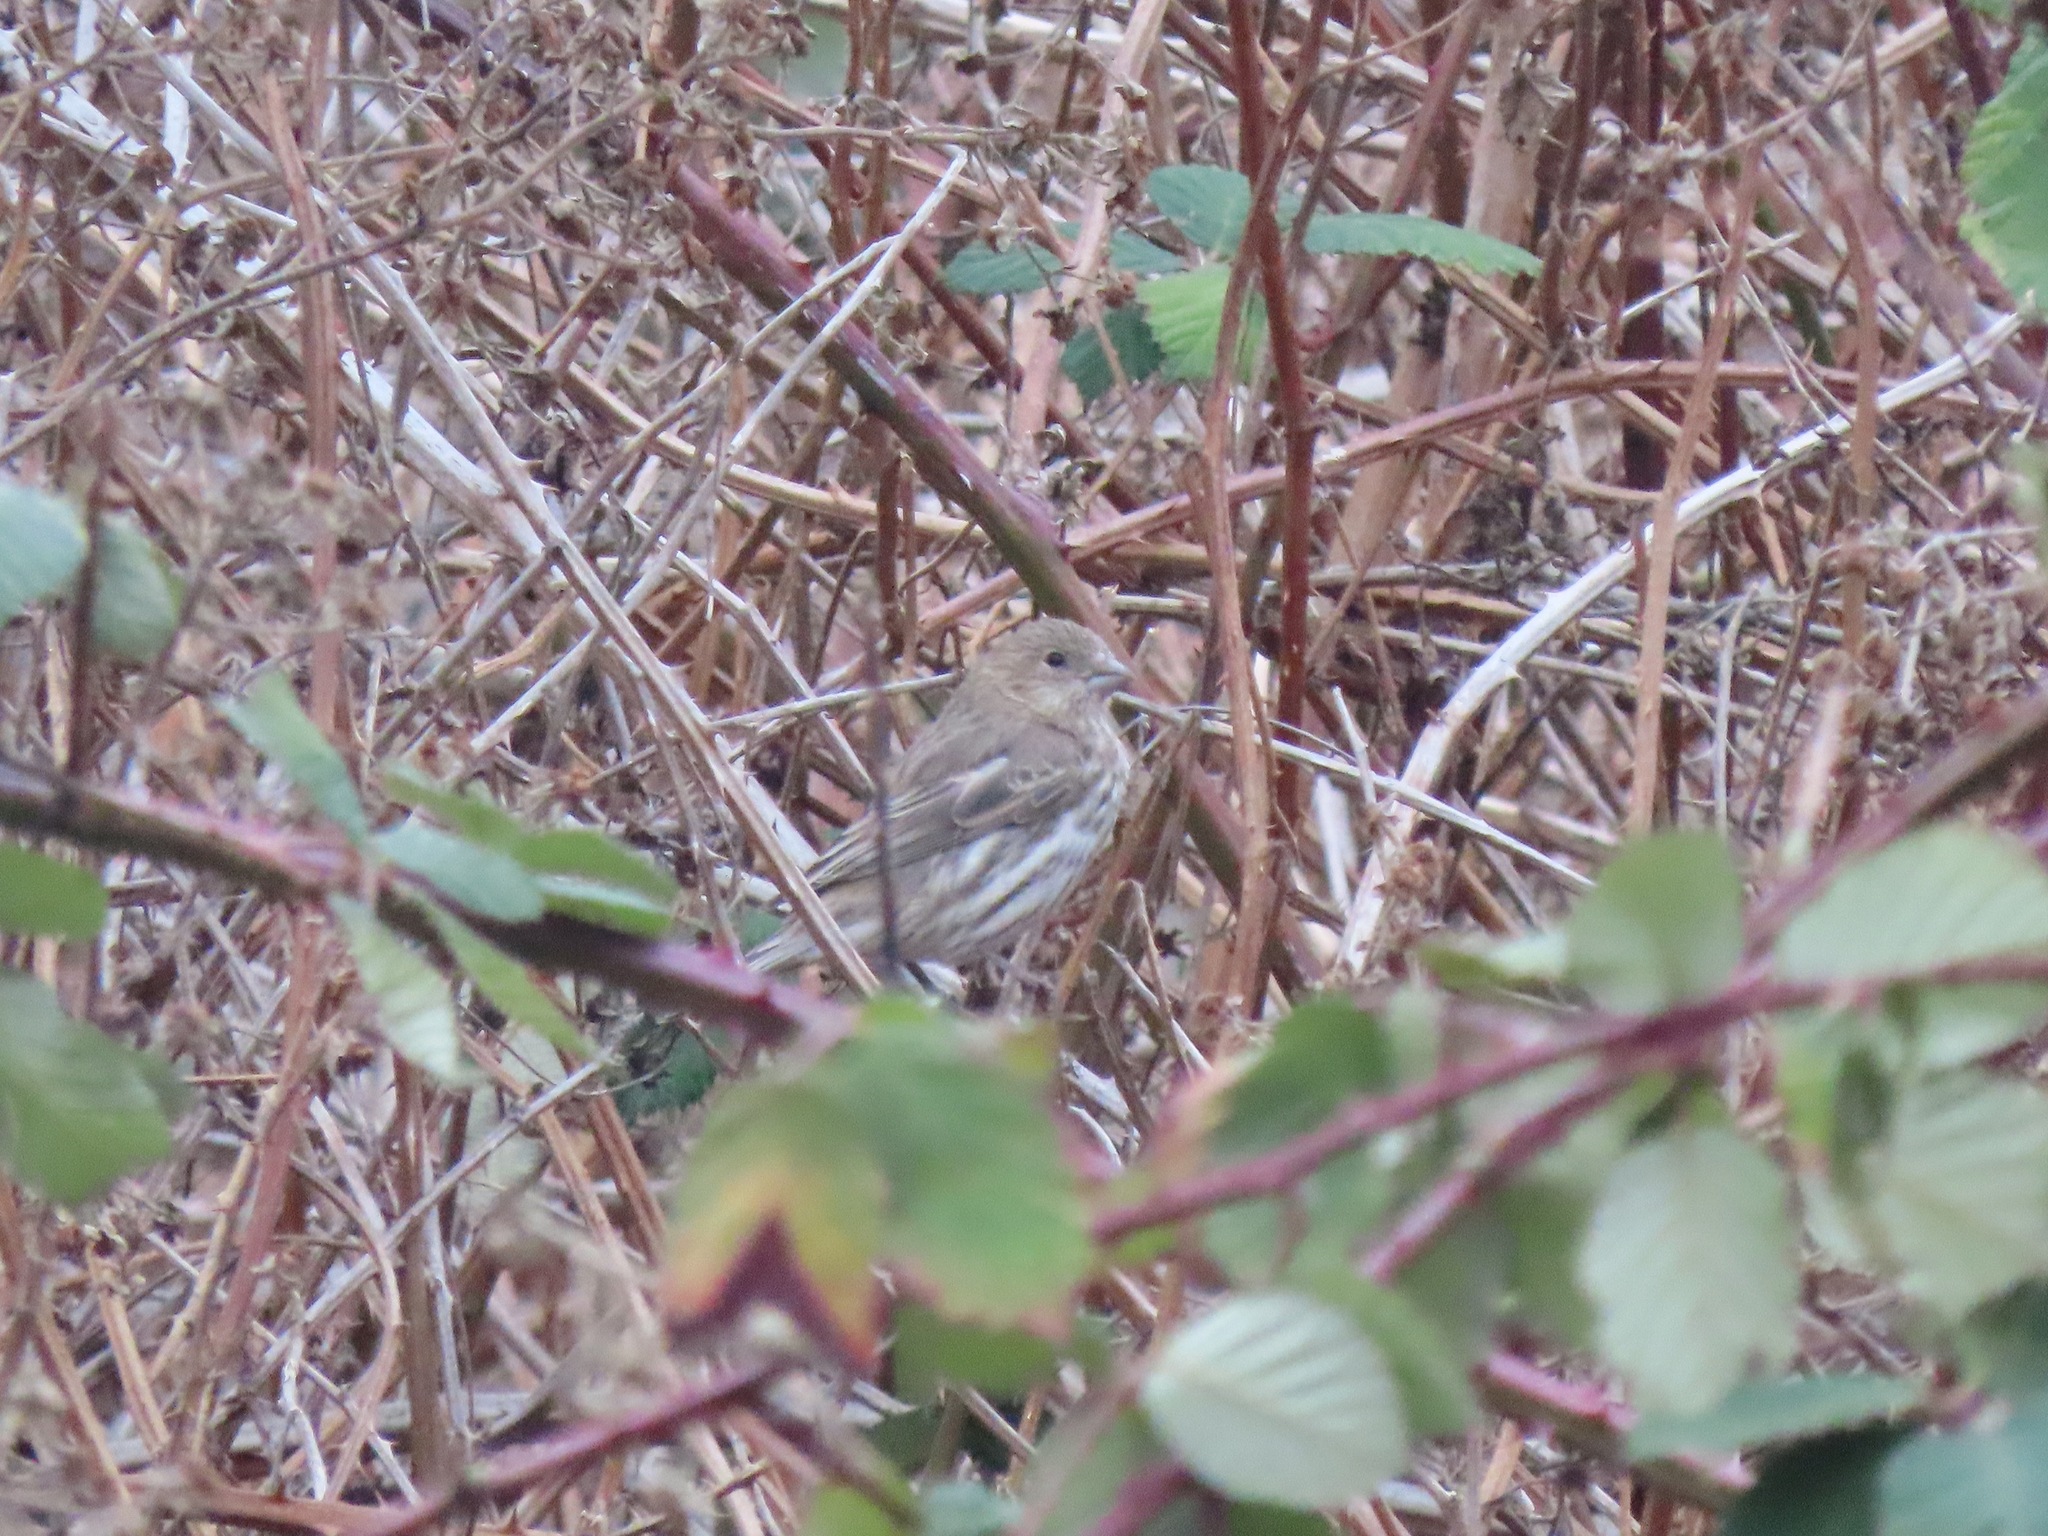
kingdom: Animalia
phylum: Chordata
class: Aves
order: Passeriformes
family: Fringillidae
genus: Haemorhous
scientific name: Haemorhous mexicanus
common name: House finch
